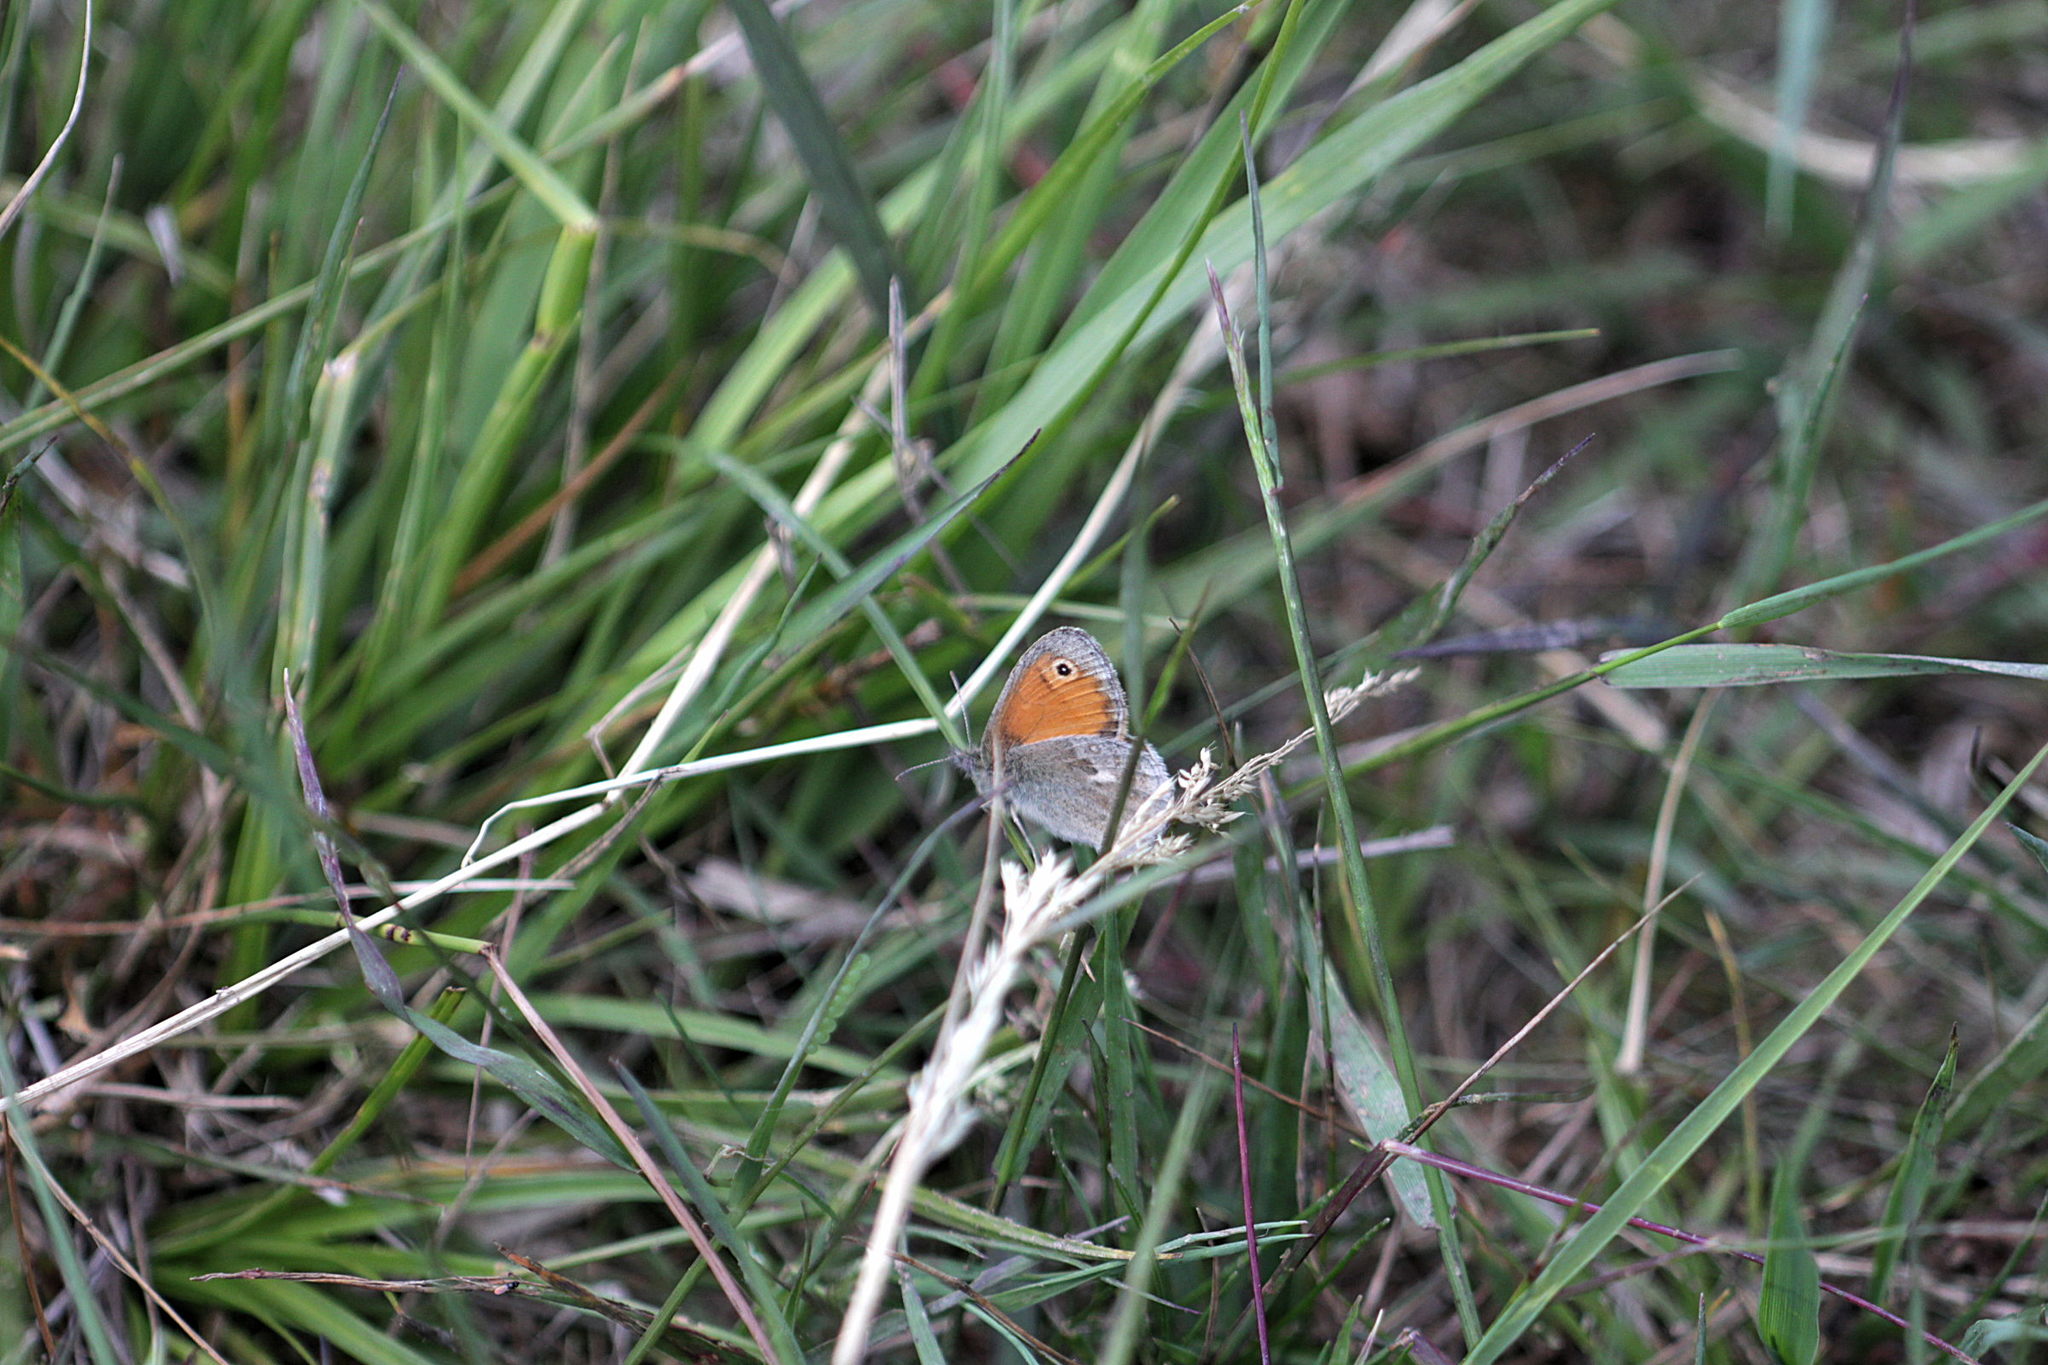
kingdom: Animalia
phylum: Arthropoda
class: Insecta
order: Lepidoptera
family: Nymphalidae
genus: Coenonympha
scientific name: Coenonympha pamphilus
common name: Small heath
